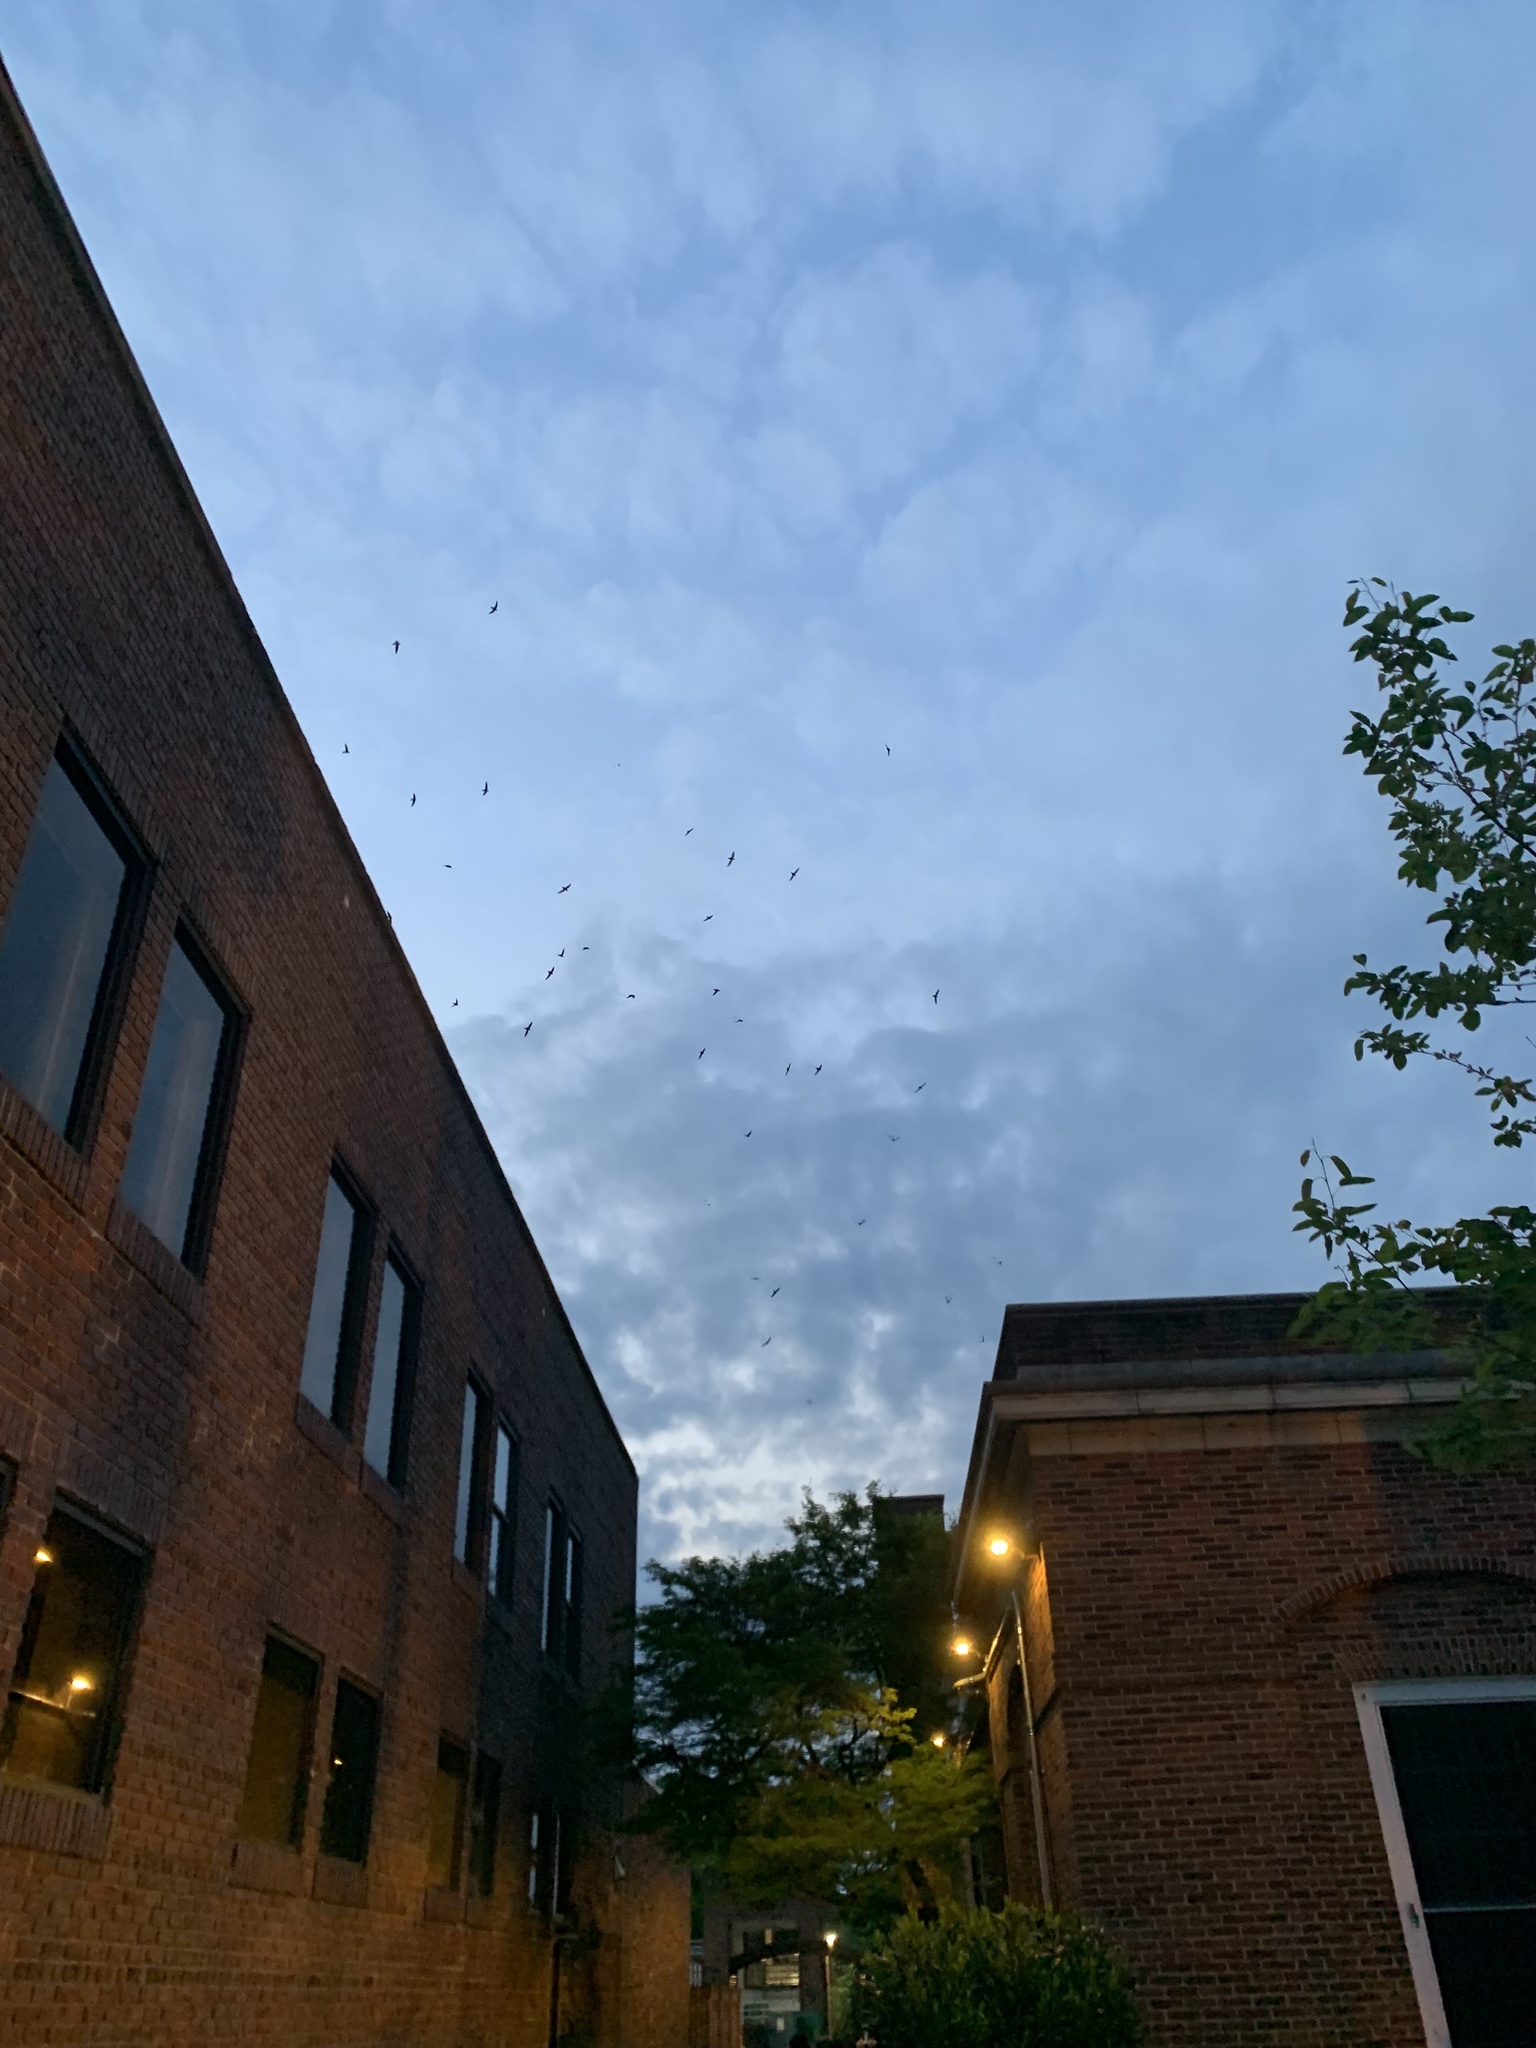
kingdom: Animalia
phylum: Chordata
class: Aves
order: Apodiformes
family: Apodidae
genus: Chaetura
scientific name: Chaetura pelagica
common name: Chimney swift
